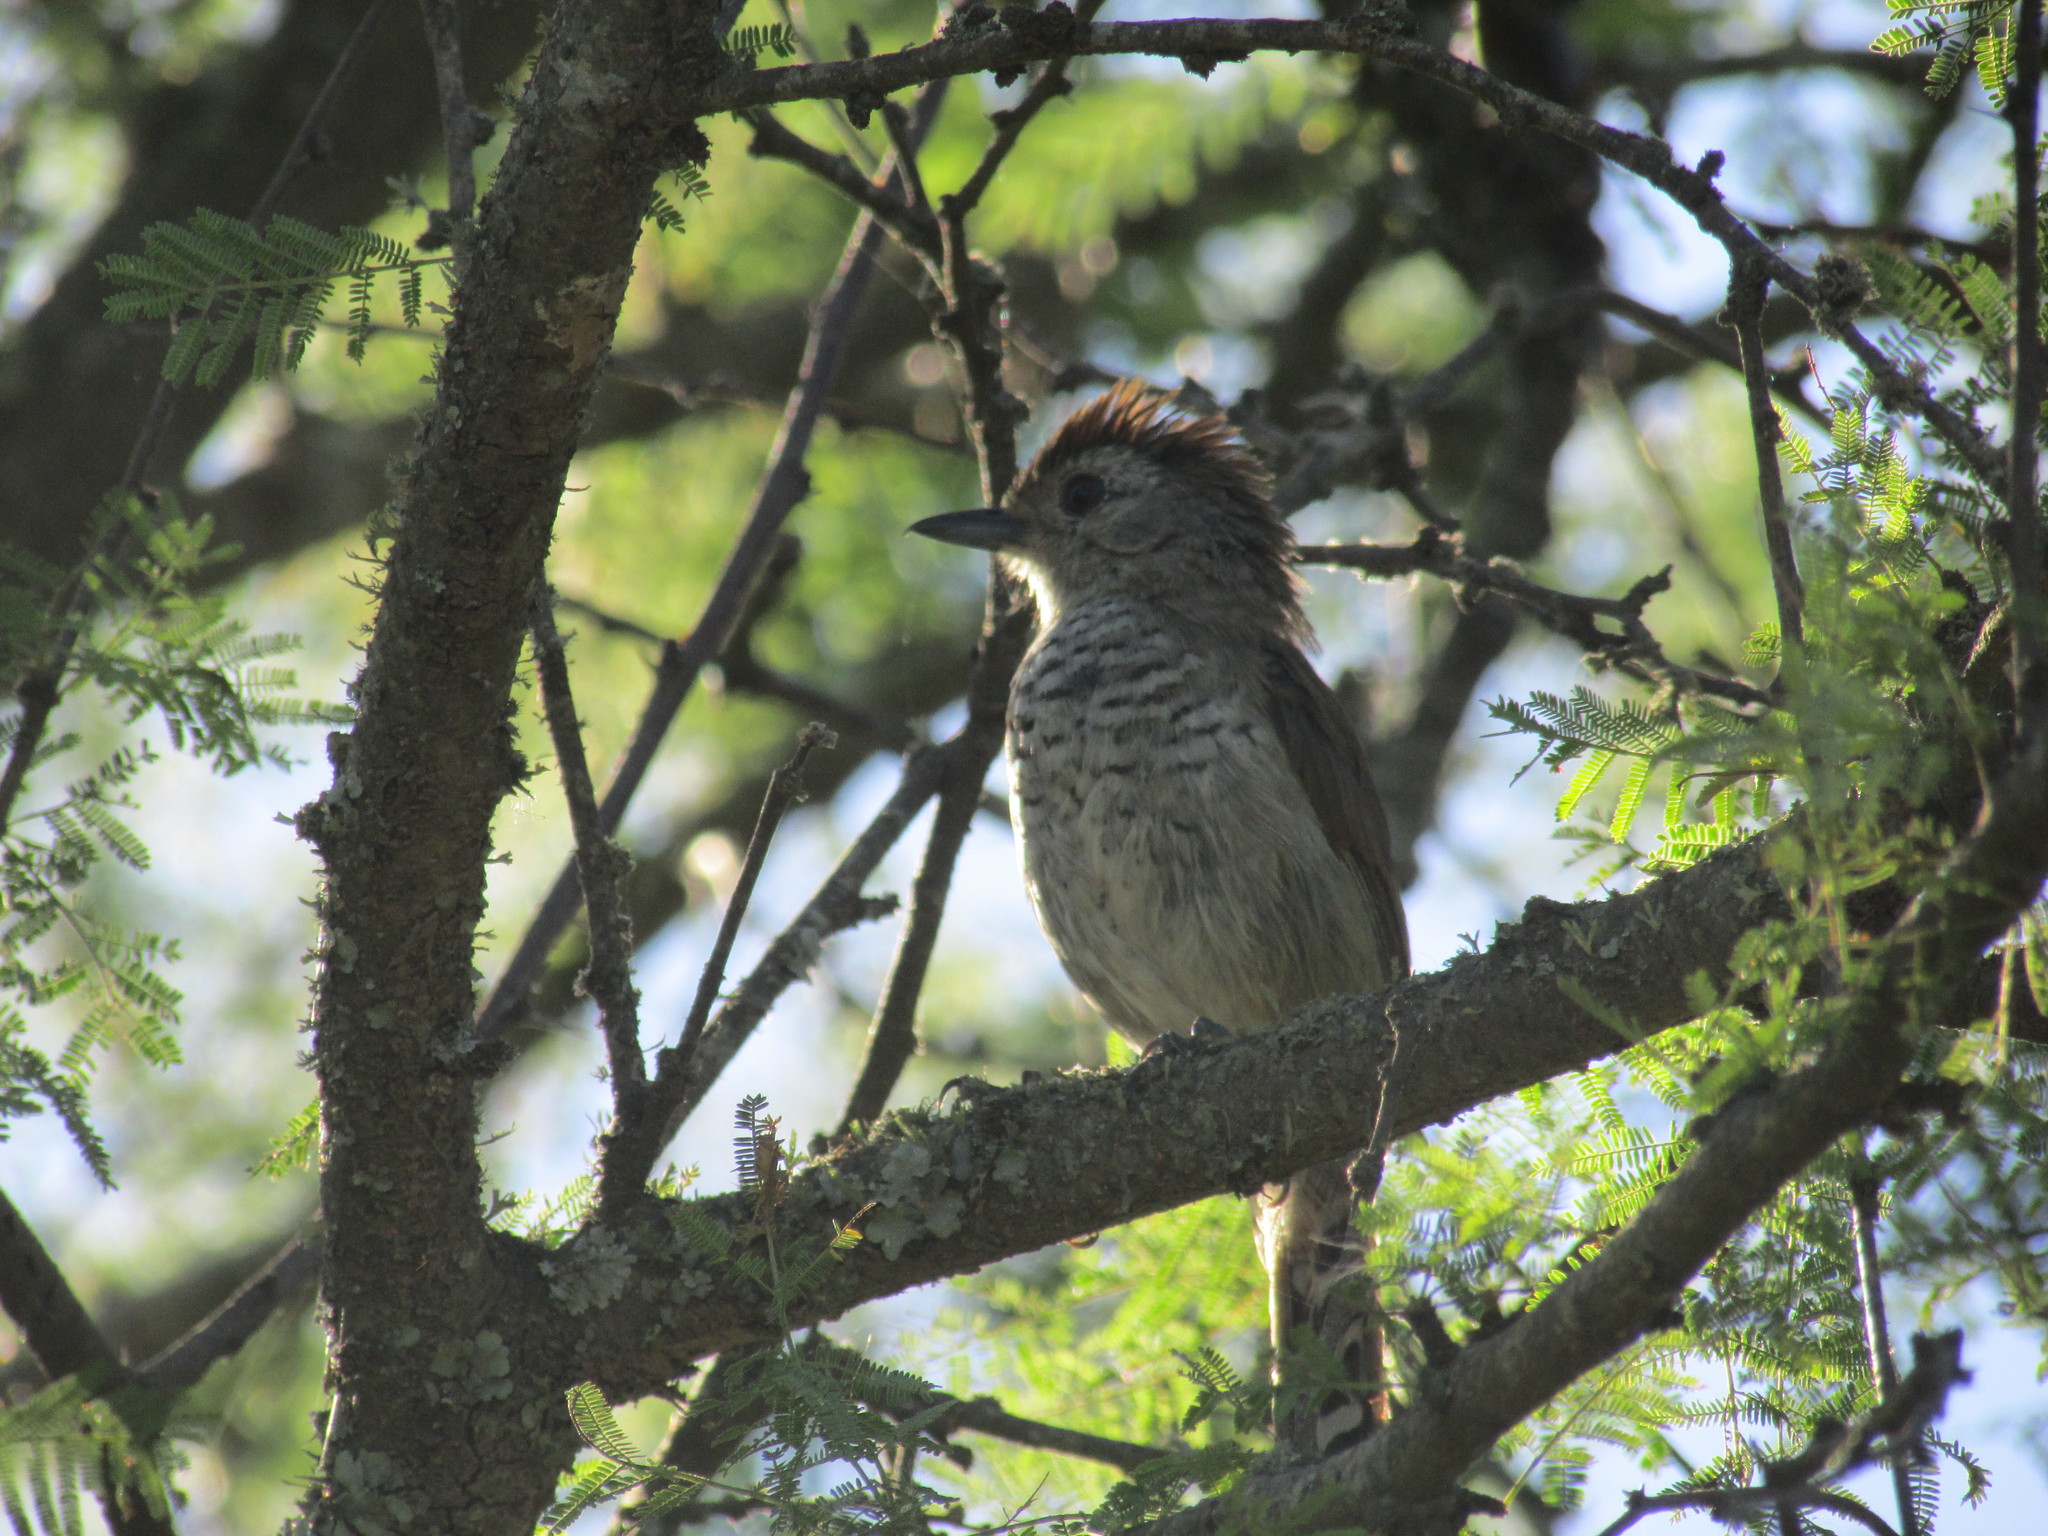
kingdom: Animalia
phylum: Chordata
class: Aves
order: Passeriformes
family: Thamnophilidae
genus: Thamnophilus
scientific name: Thamnophilus ruficapillus
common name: Rufous-capped antshrike
